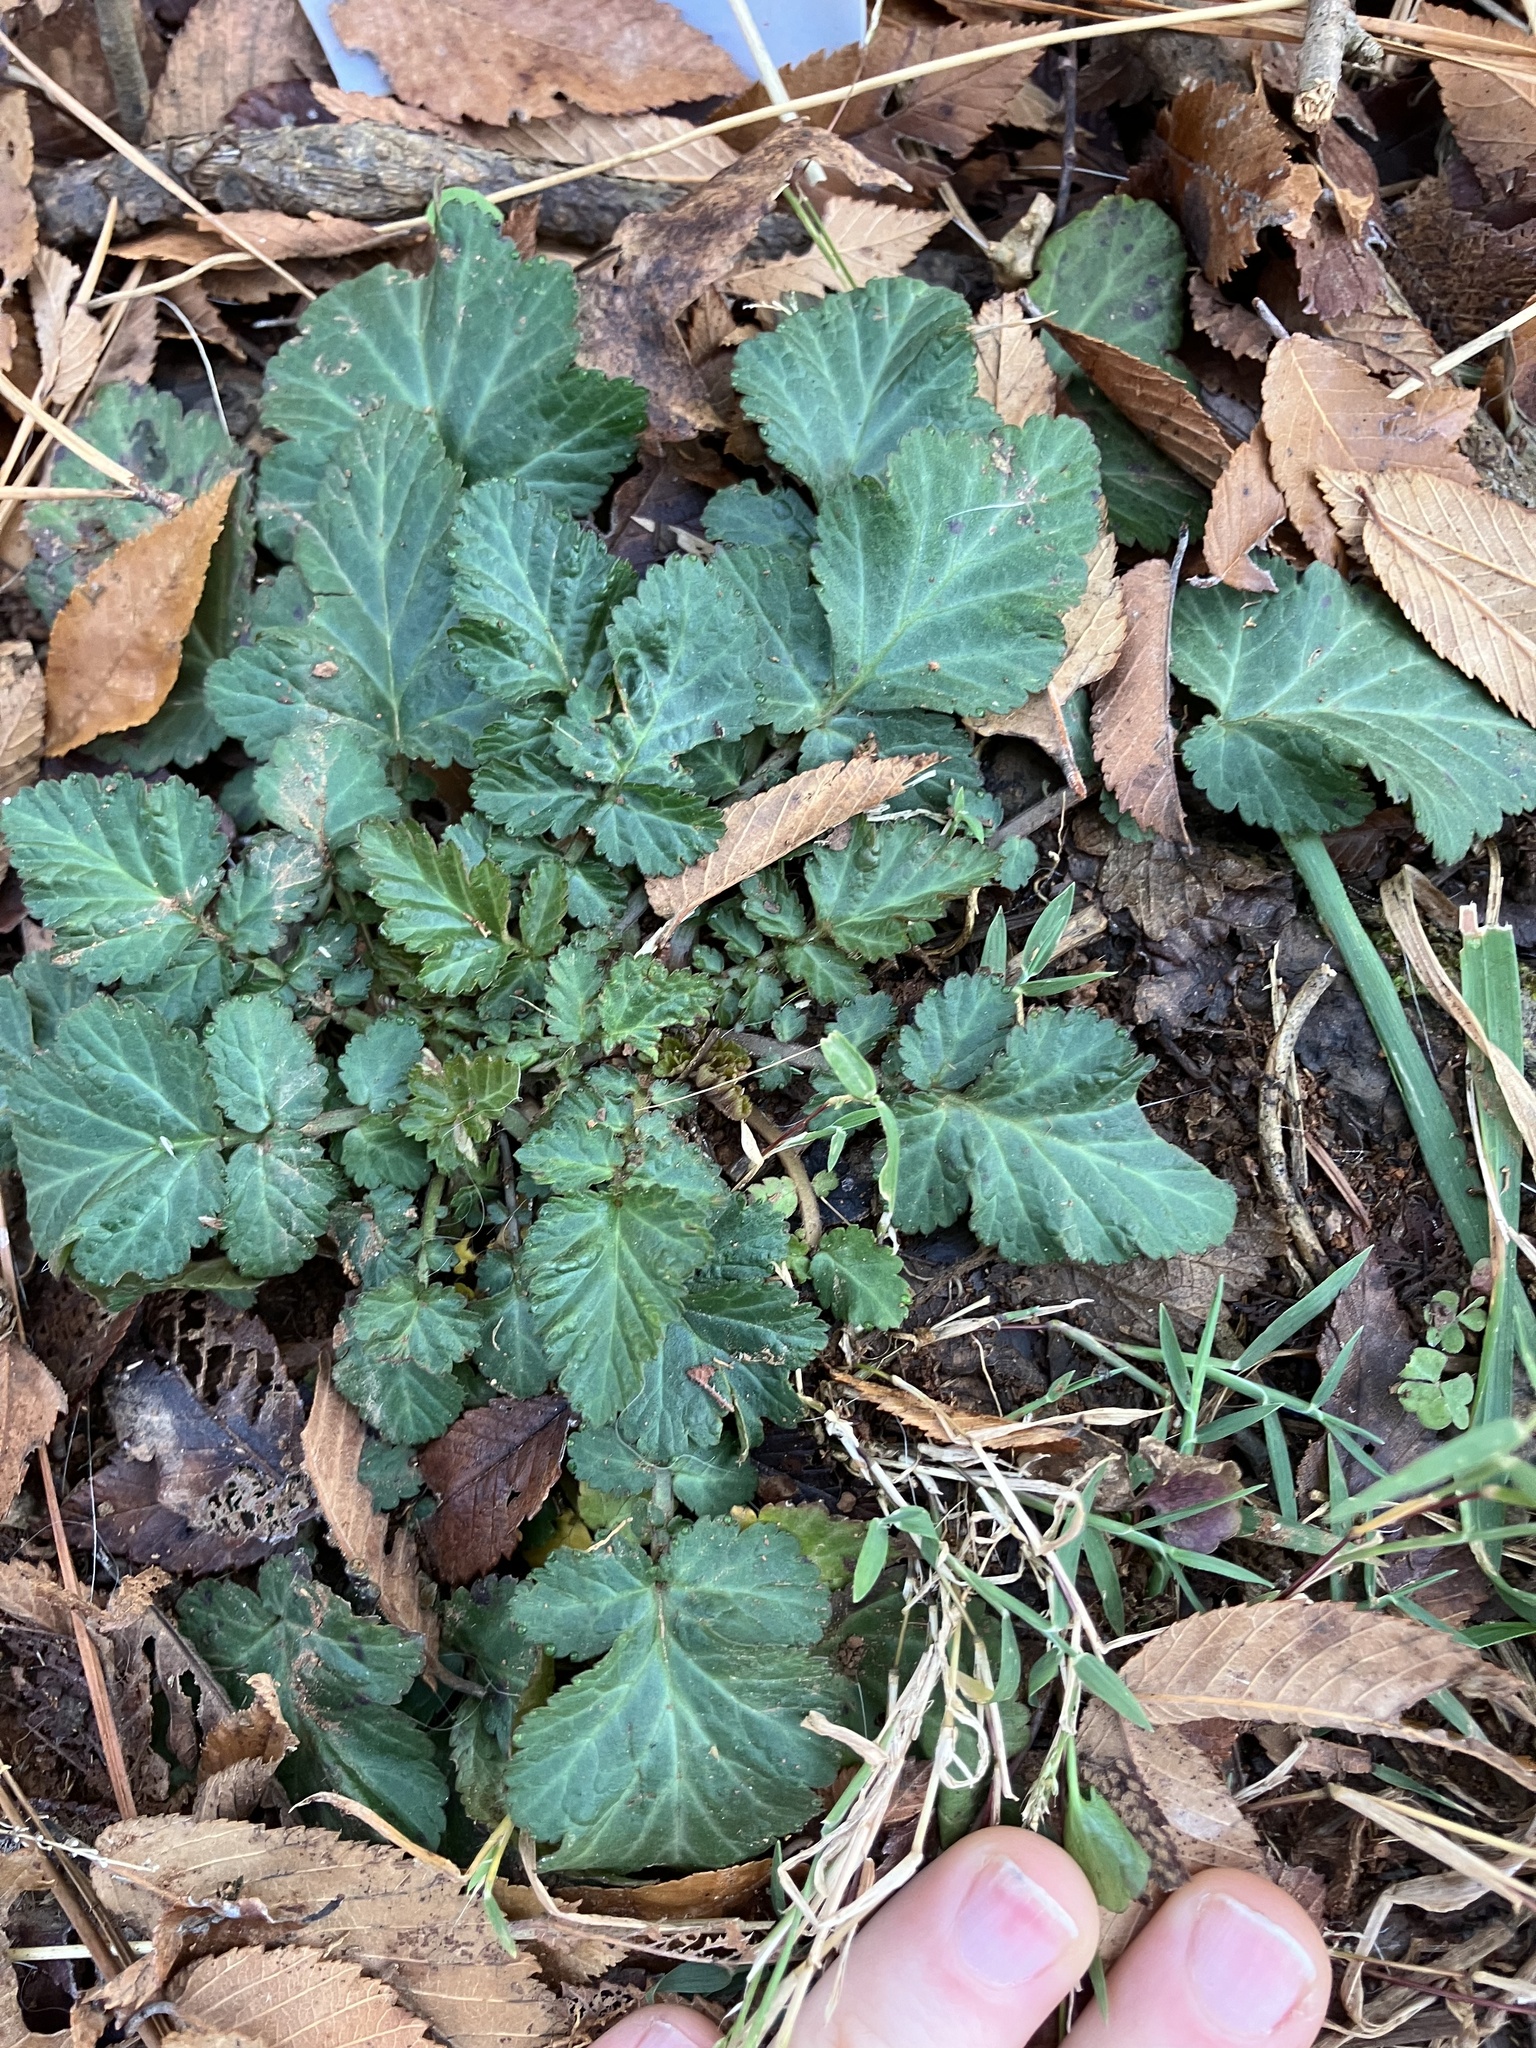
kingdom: Plantae
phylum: Tracheophyta
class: Magnoliopsida
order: Rosales
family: Rosaceae
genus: Geum
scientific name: Geum canadense
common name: White avens
